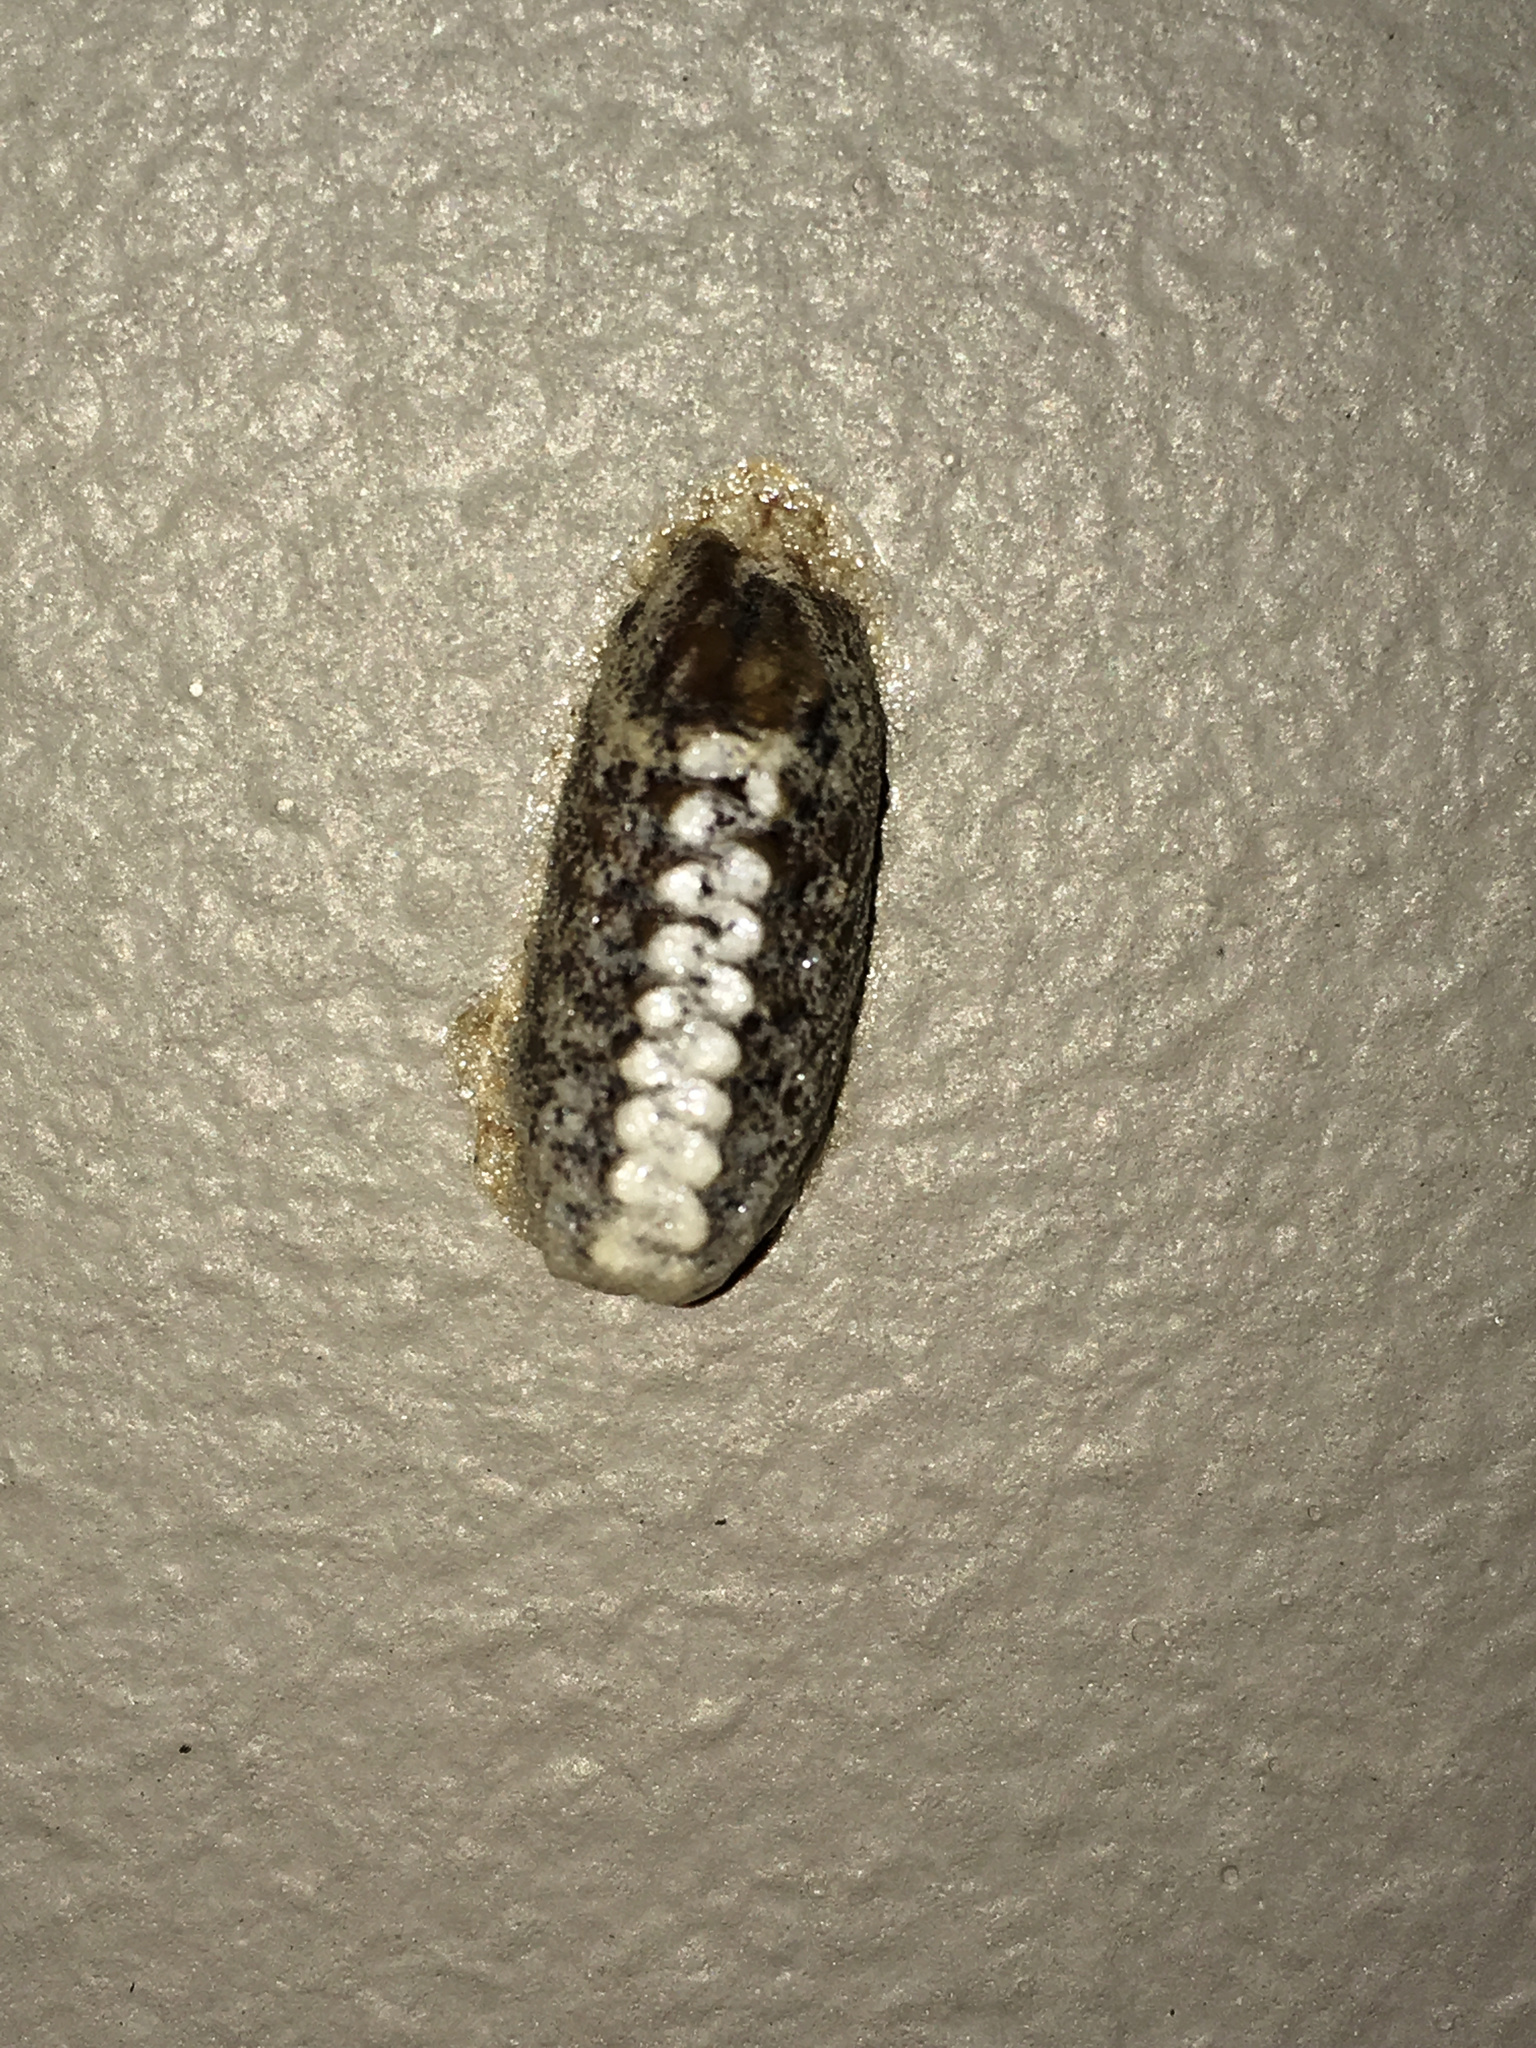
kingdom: Animalia
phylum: Arthropoda
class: Insecta
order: Mantodea
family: Mantidae
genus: Orthodera
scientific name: Orthodera novaezealandiae
